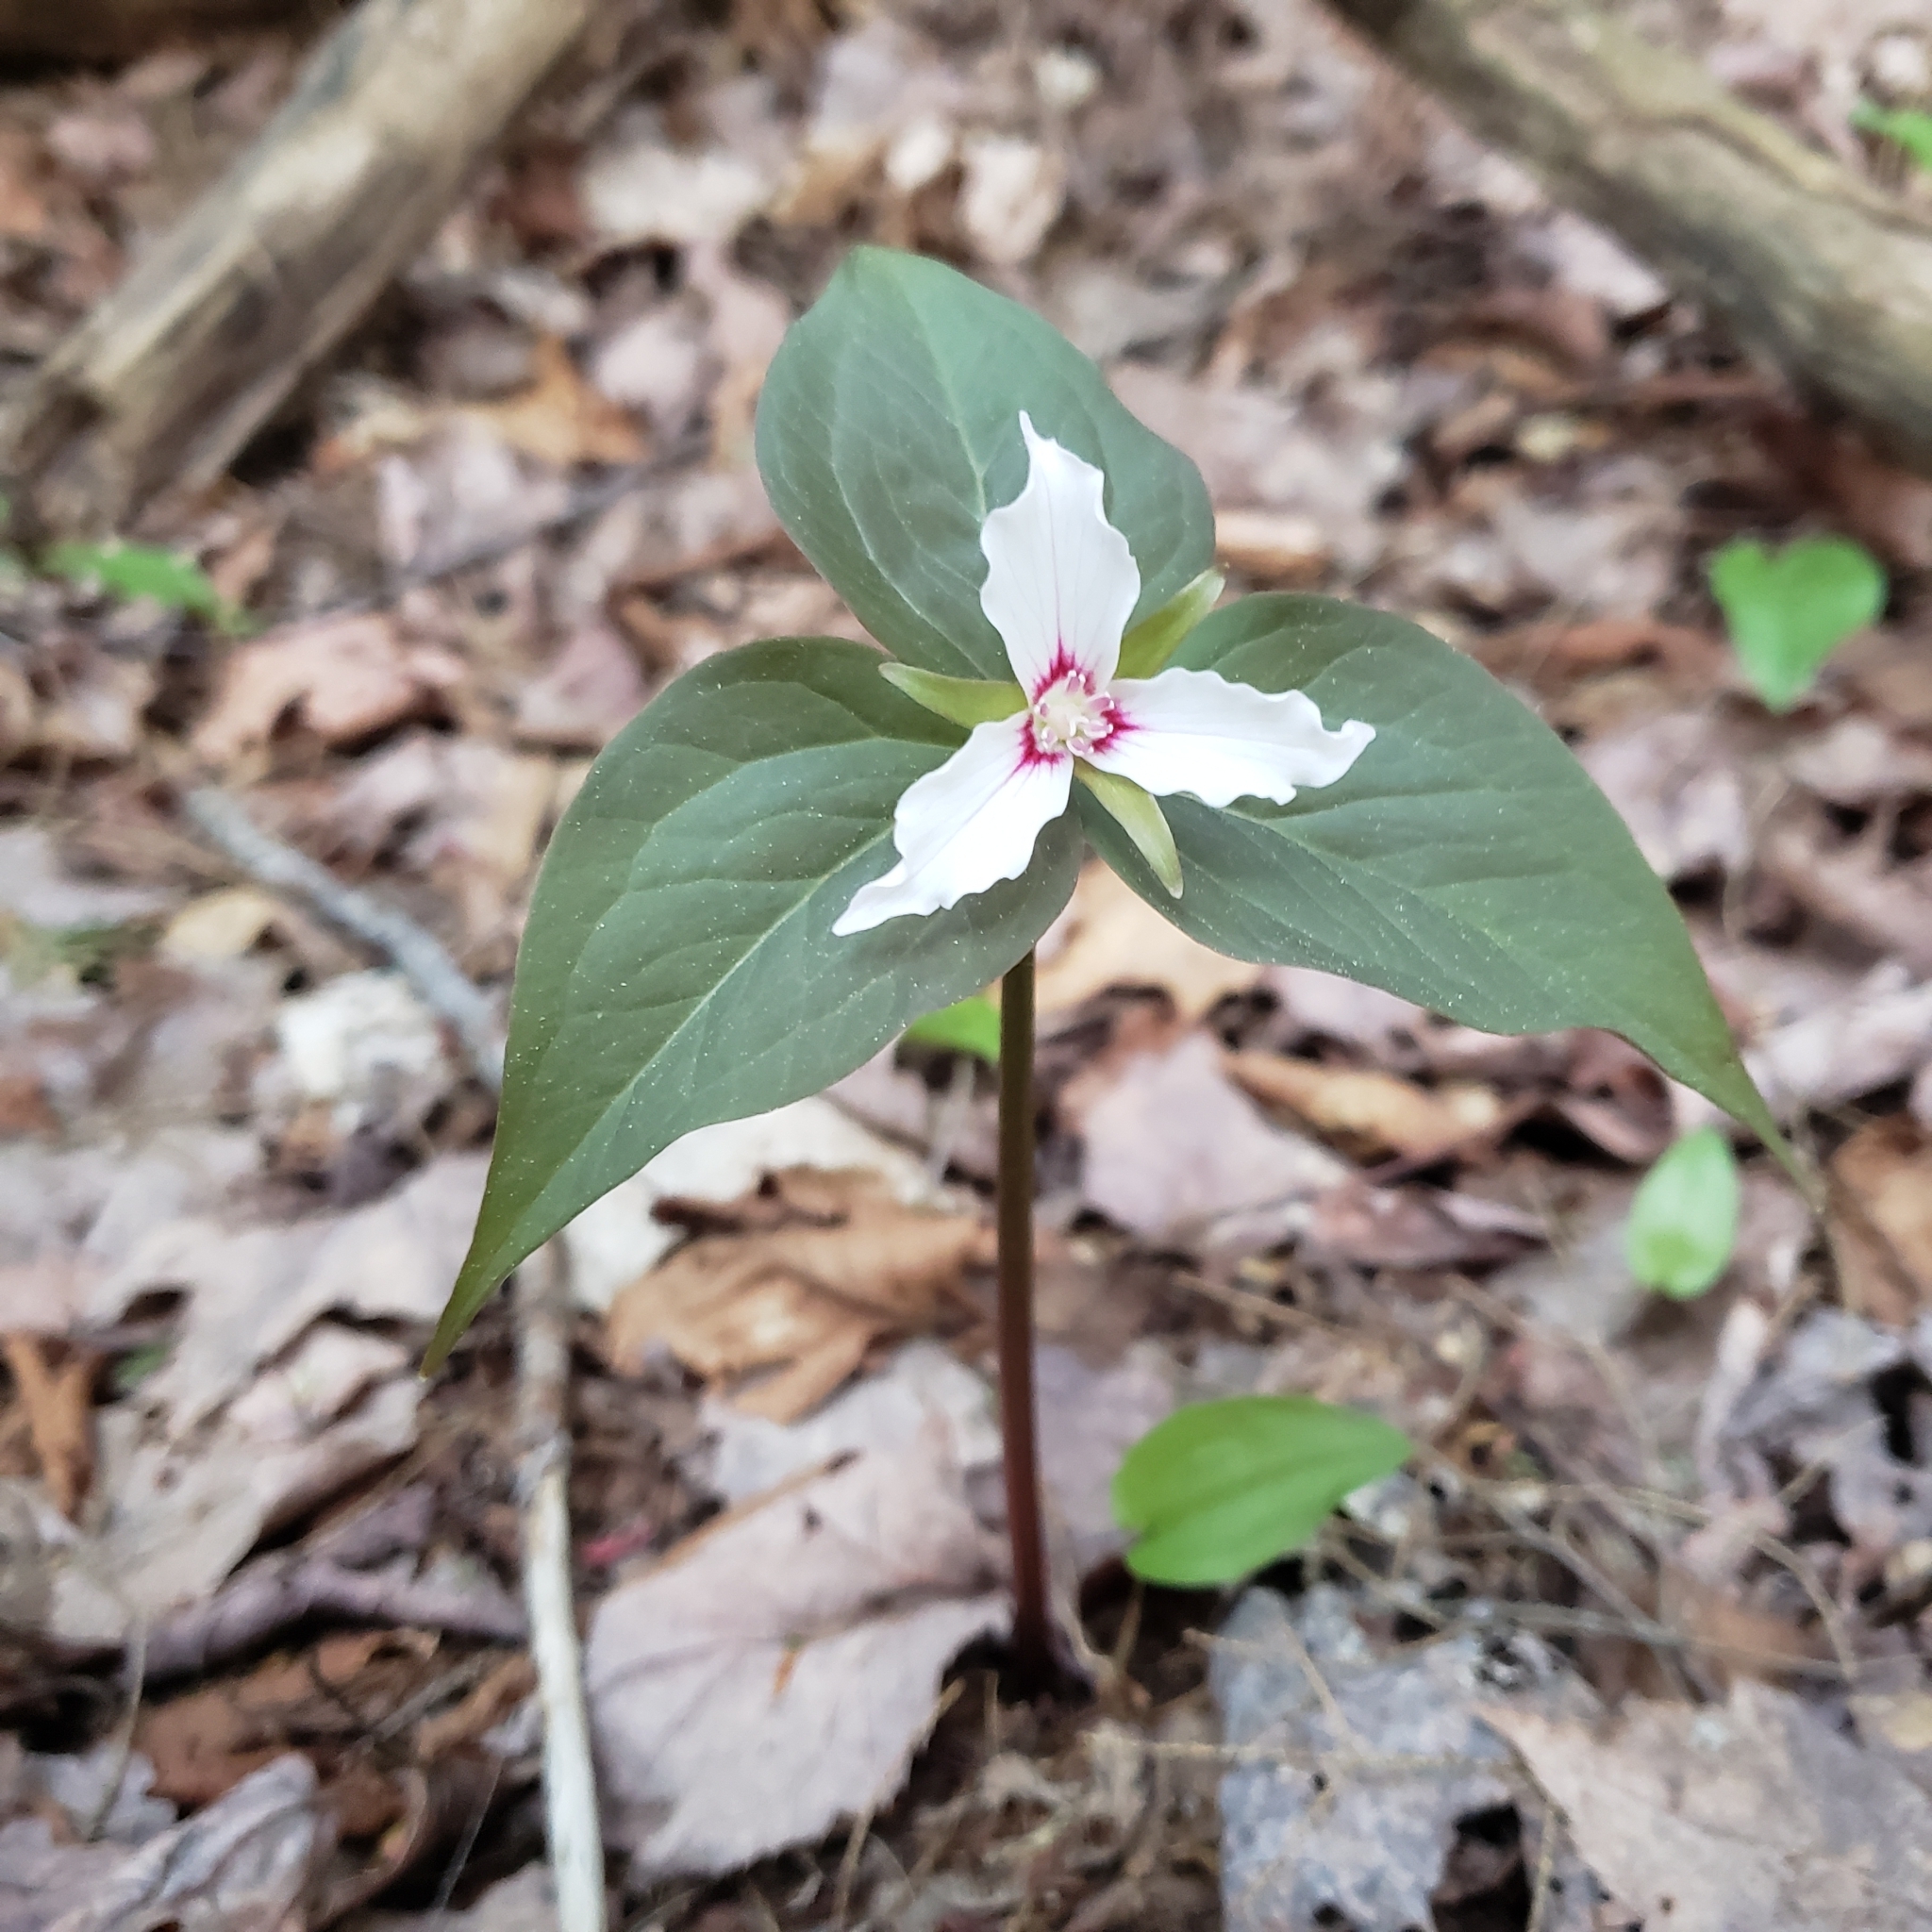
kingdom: Plantae
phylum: Tracheophyta
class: Liliopsida
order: Liliales
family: Melanthiaceae
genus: Trillium
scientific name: Trillium undulatum
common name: Paint trillium
